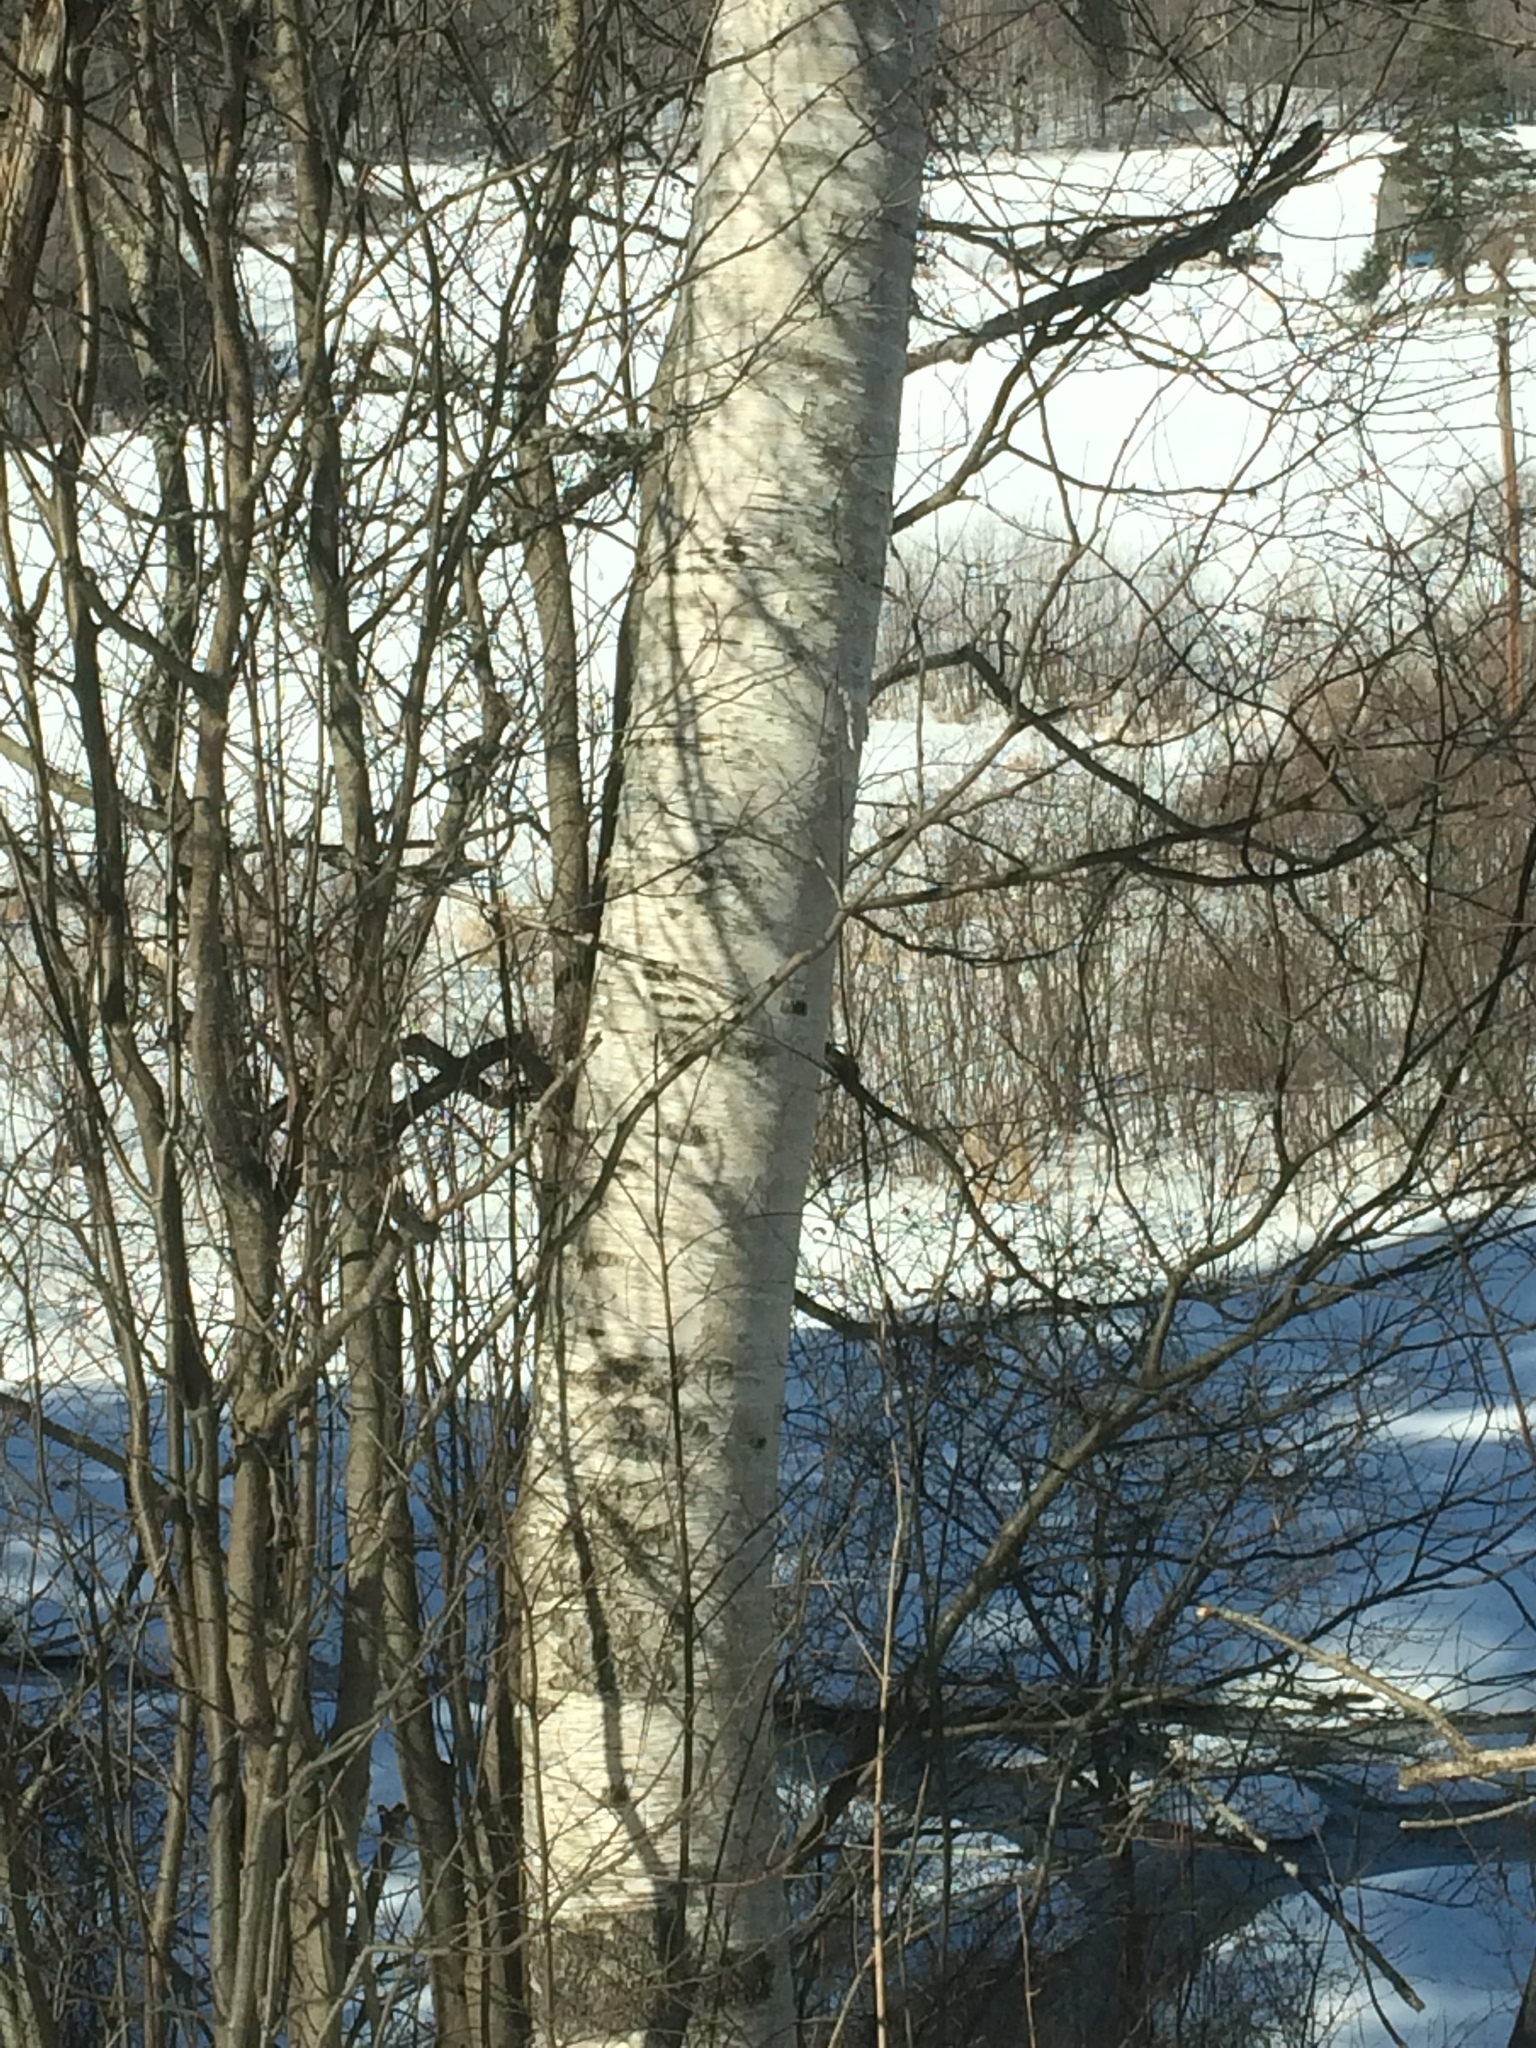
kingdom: Plantae
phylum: Tracheophyta
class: Magnoliopsida
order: Fagales
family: Betulaceae
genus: Betula
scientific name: Betula papyrifera
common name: Paper birch
